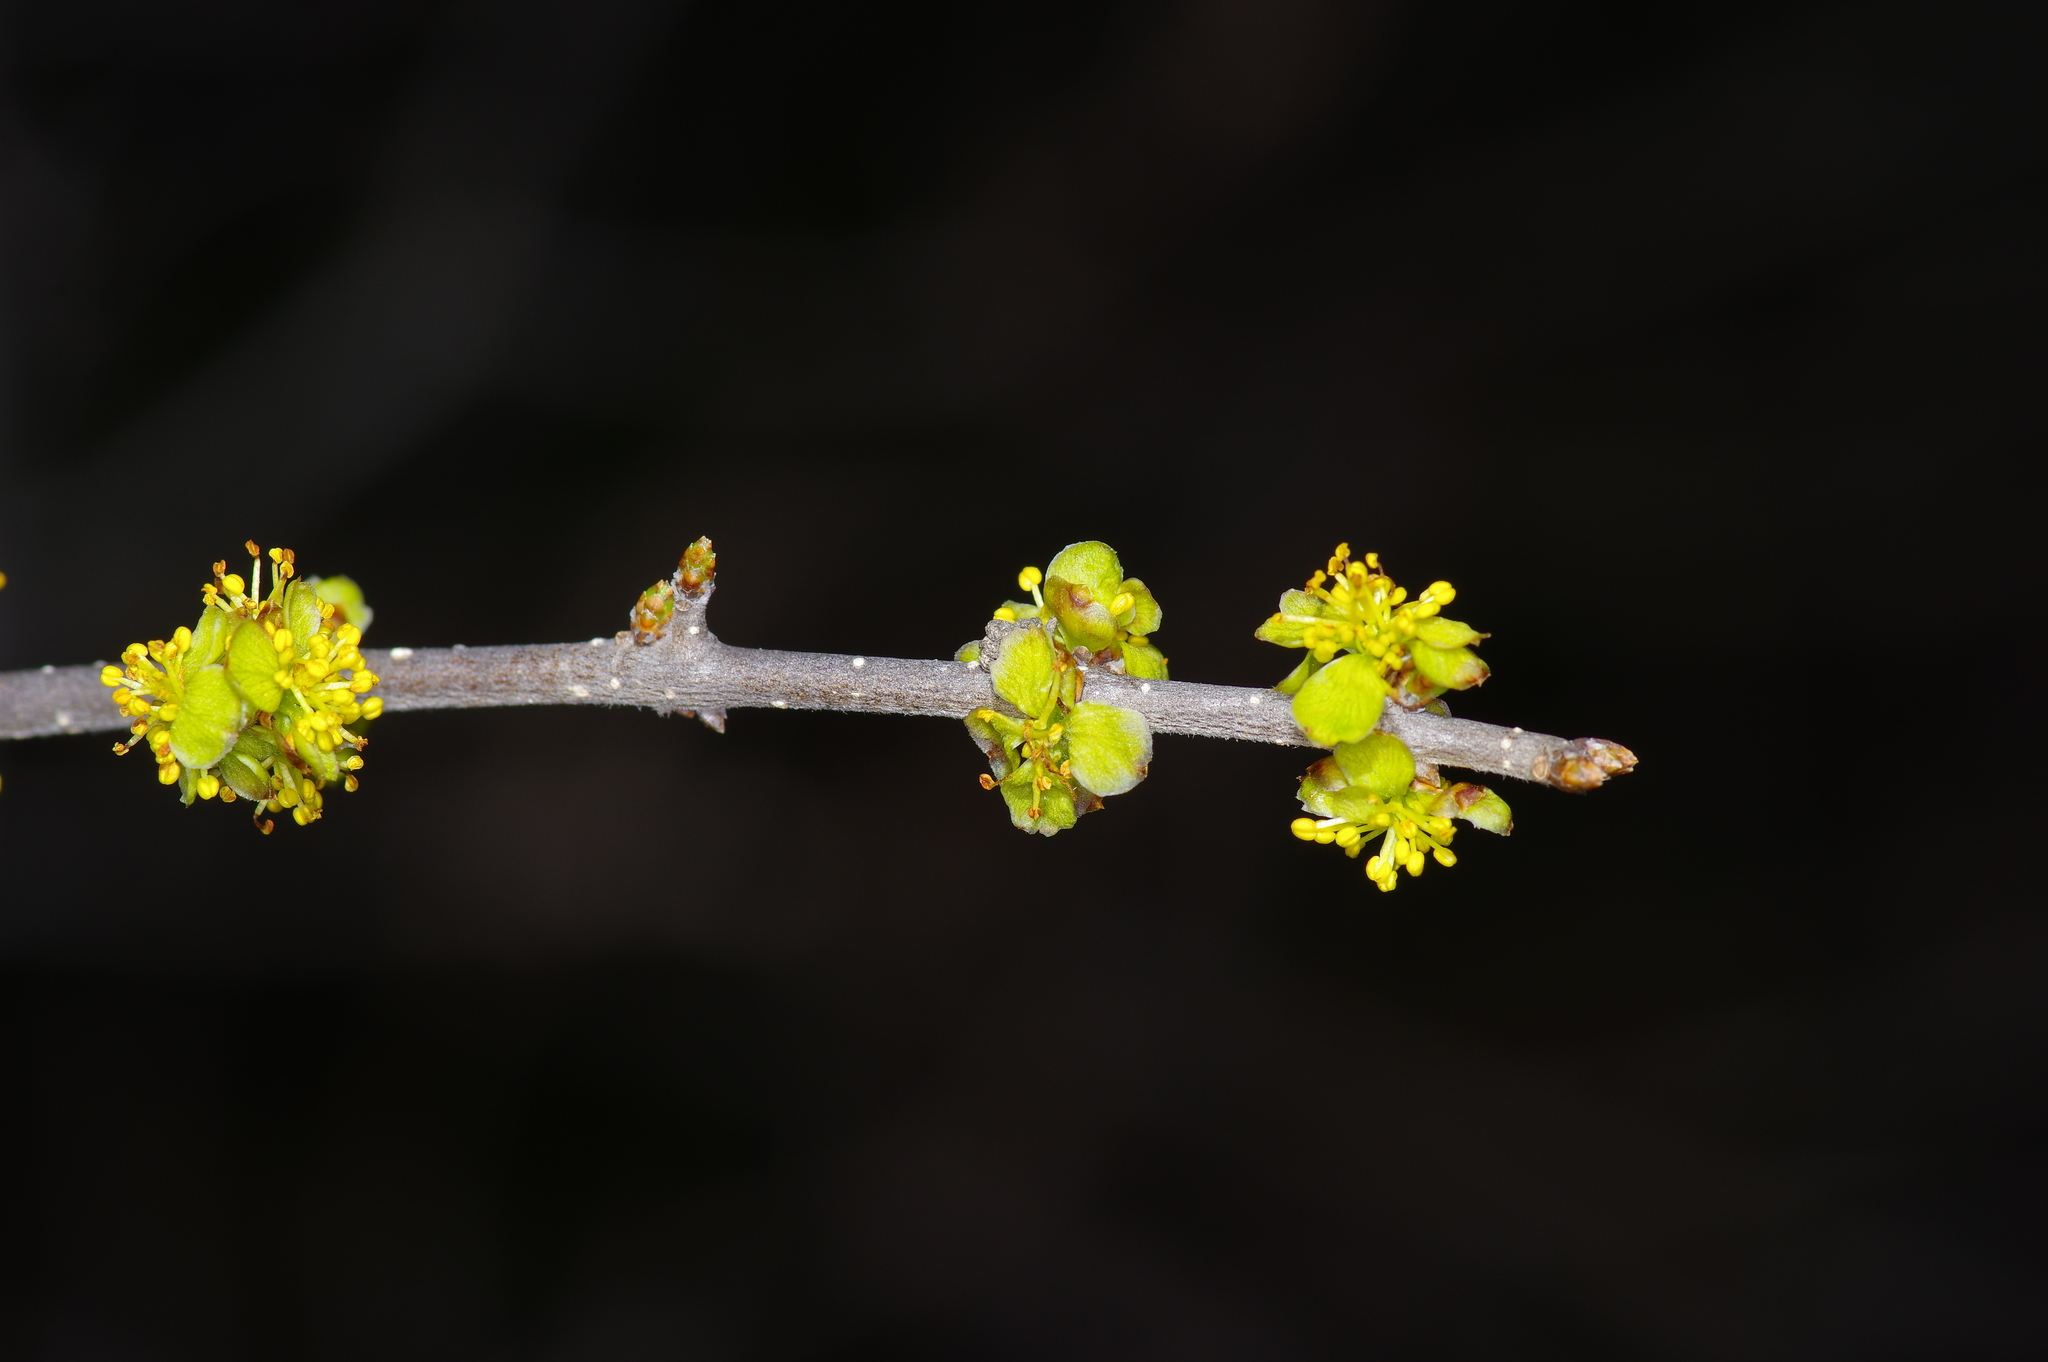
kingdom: Plantae
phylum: Tracheophyta
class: Magnoliopsida
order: Lamiales
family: Oleaceae
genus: Forestiera
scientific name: Forestiera pubescens
